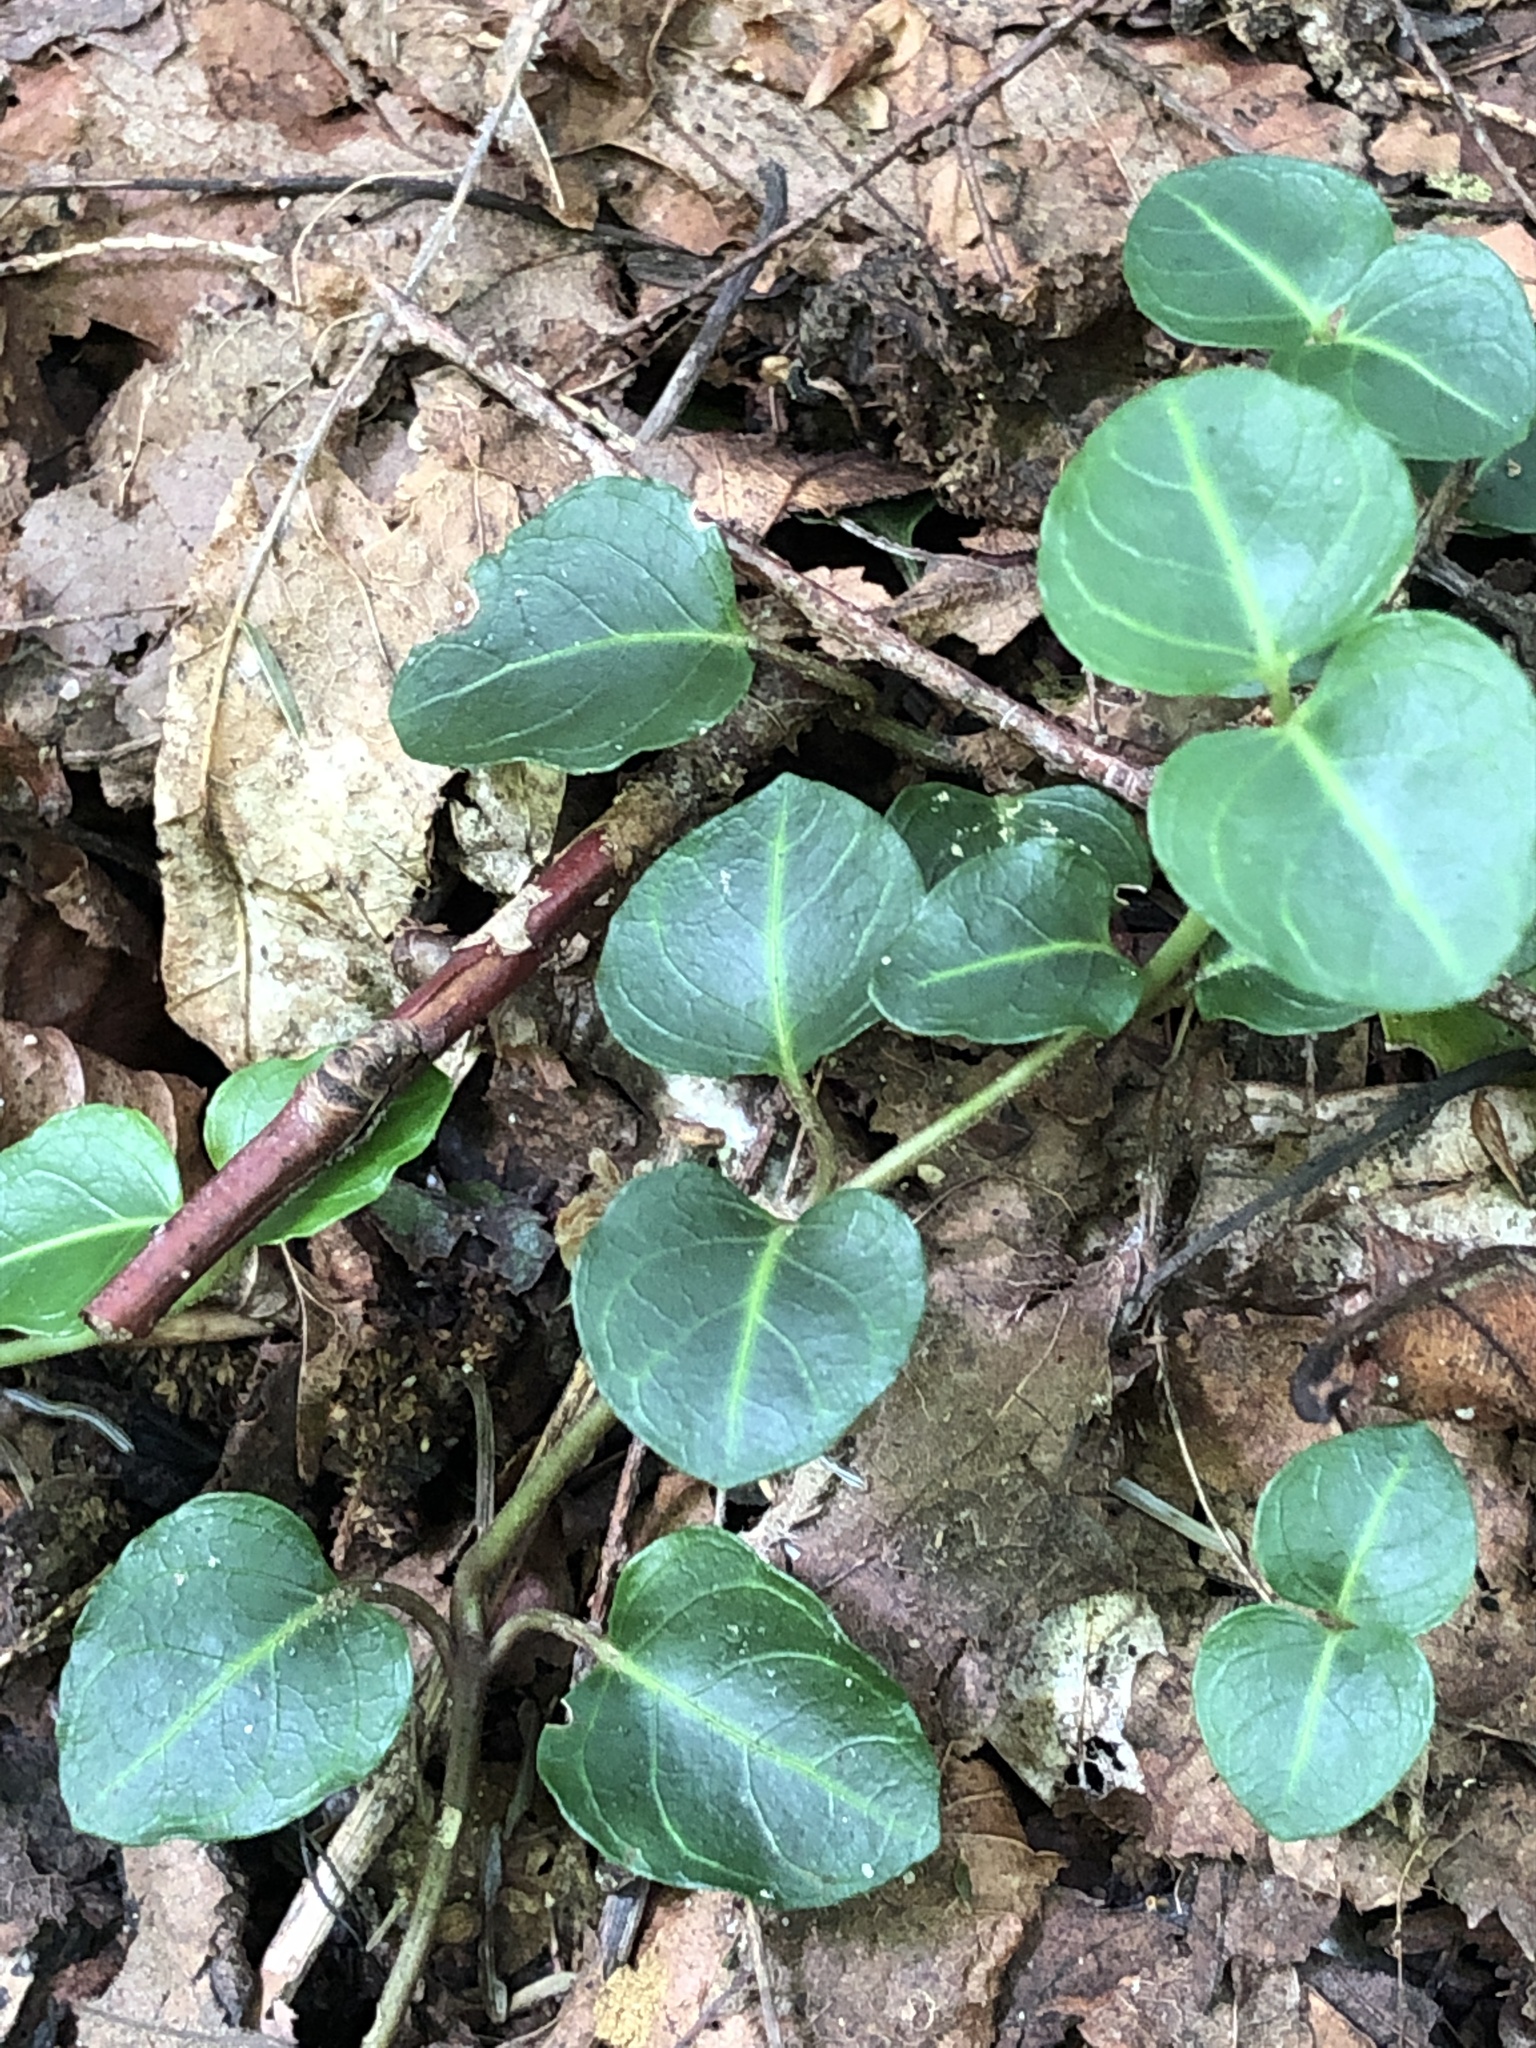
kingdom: Plantae
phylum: Tracheophyta
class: Magnoliopsida
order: Gentianales
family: Rubiaceae
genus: Mitchella
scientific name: Mitchella repens
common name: Partridge-berry
